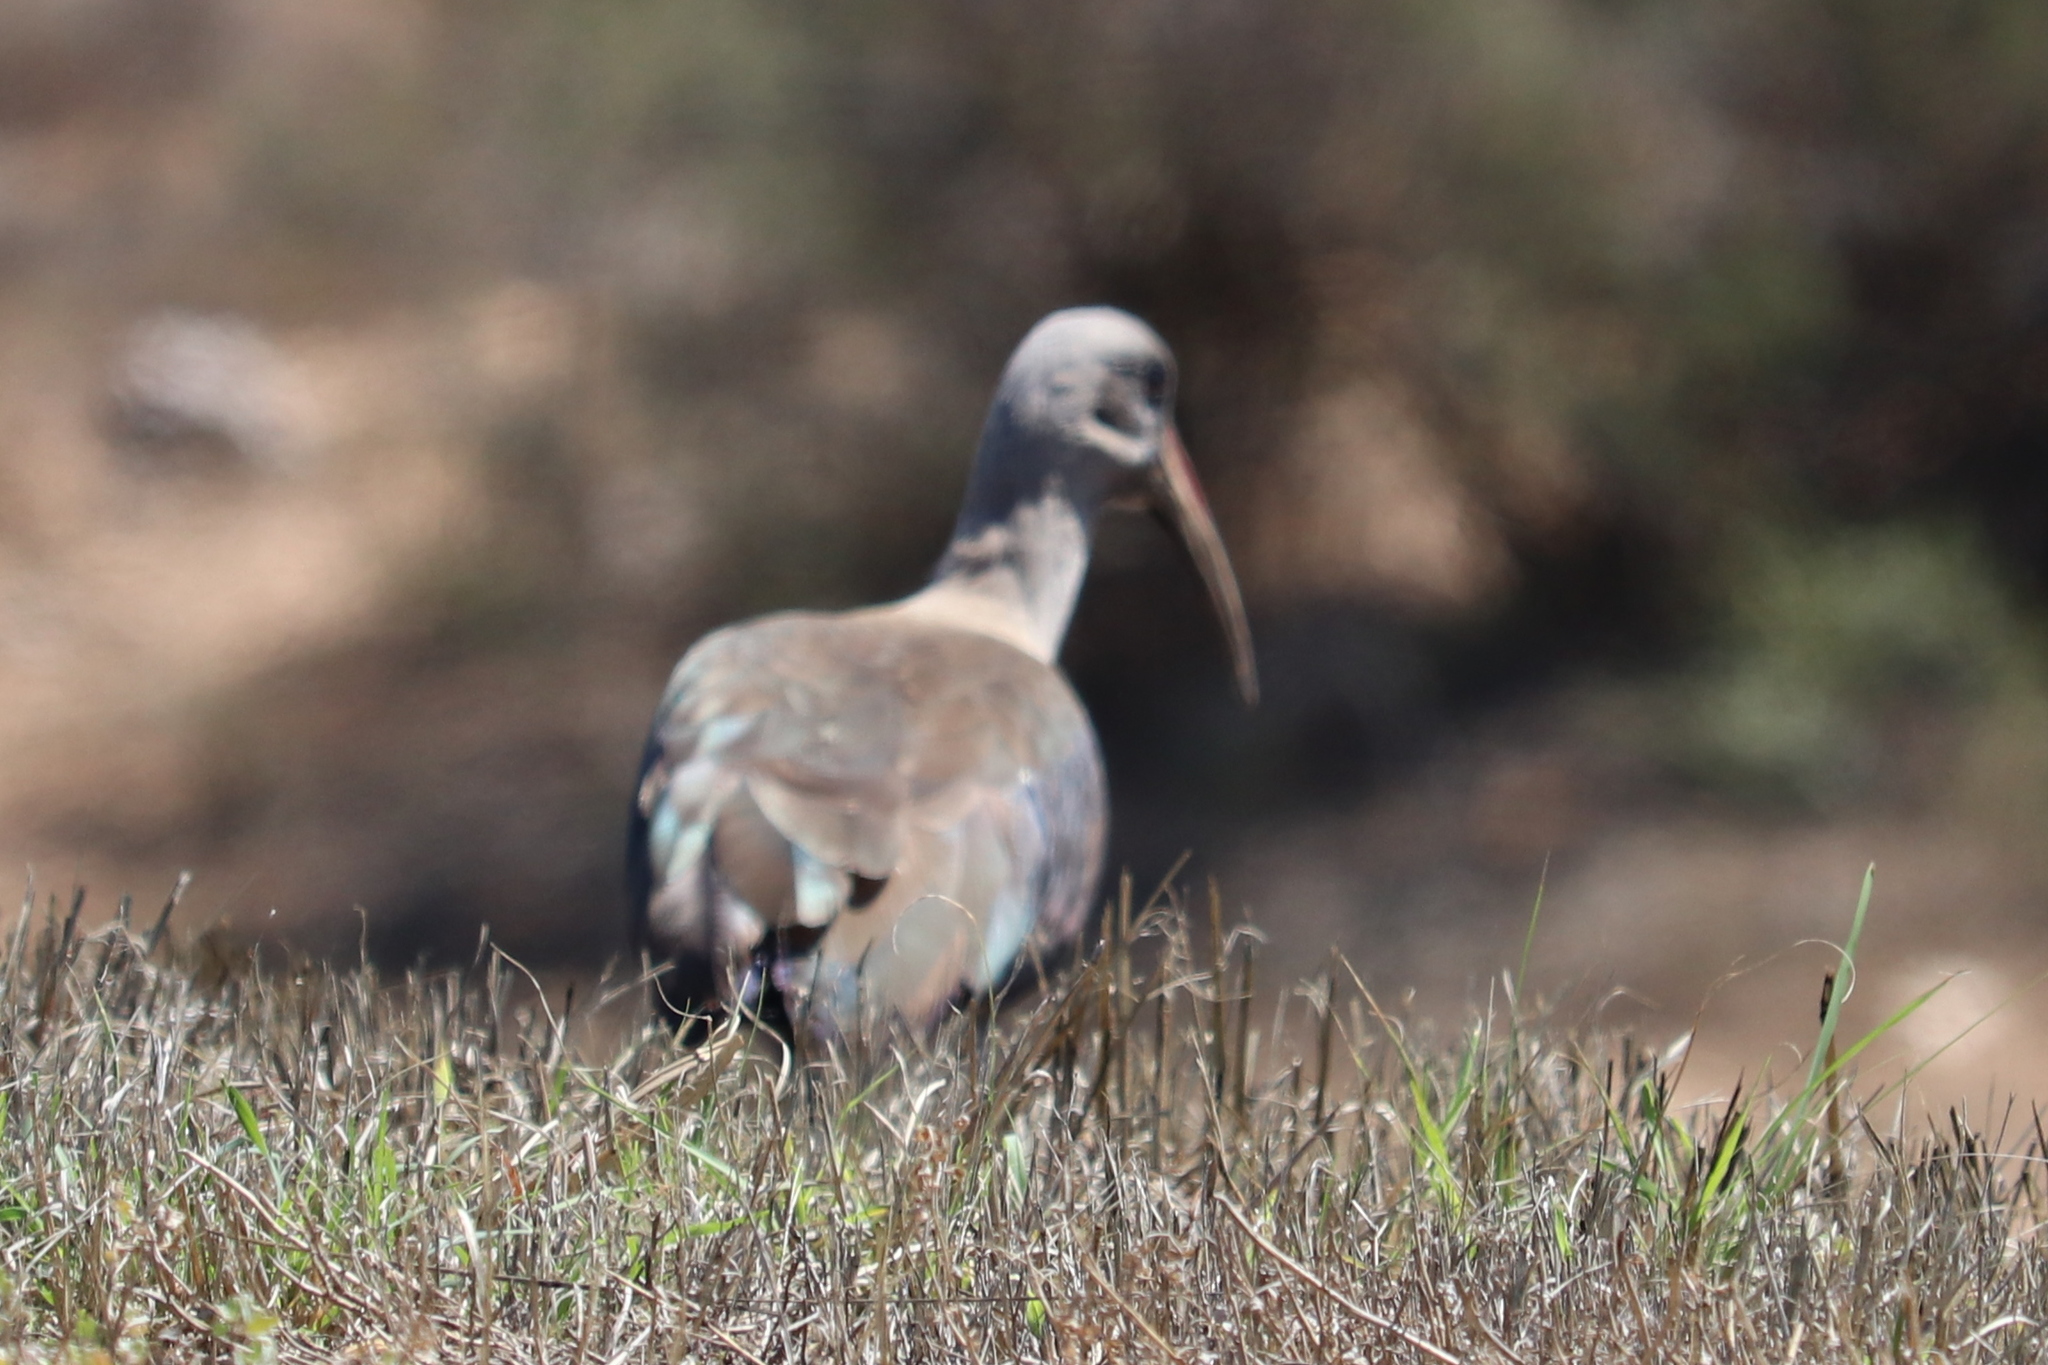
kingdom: Animalia
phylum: Chordata
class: Aves
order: Pelecaniformes
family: Threskiornithidae
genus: Bostrychia
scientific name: Bostrychia hagedash
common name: Hadada ibis
